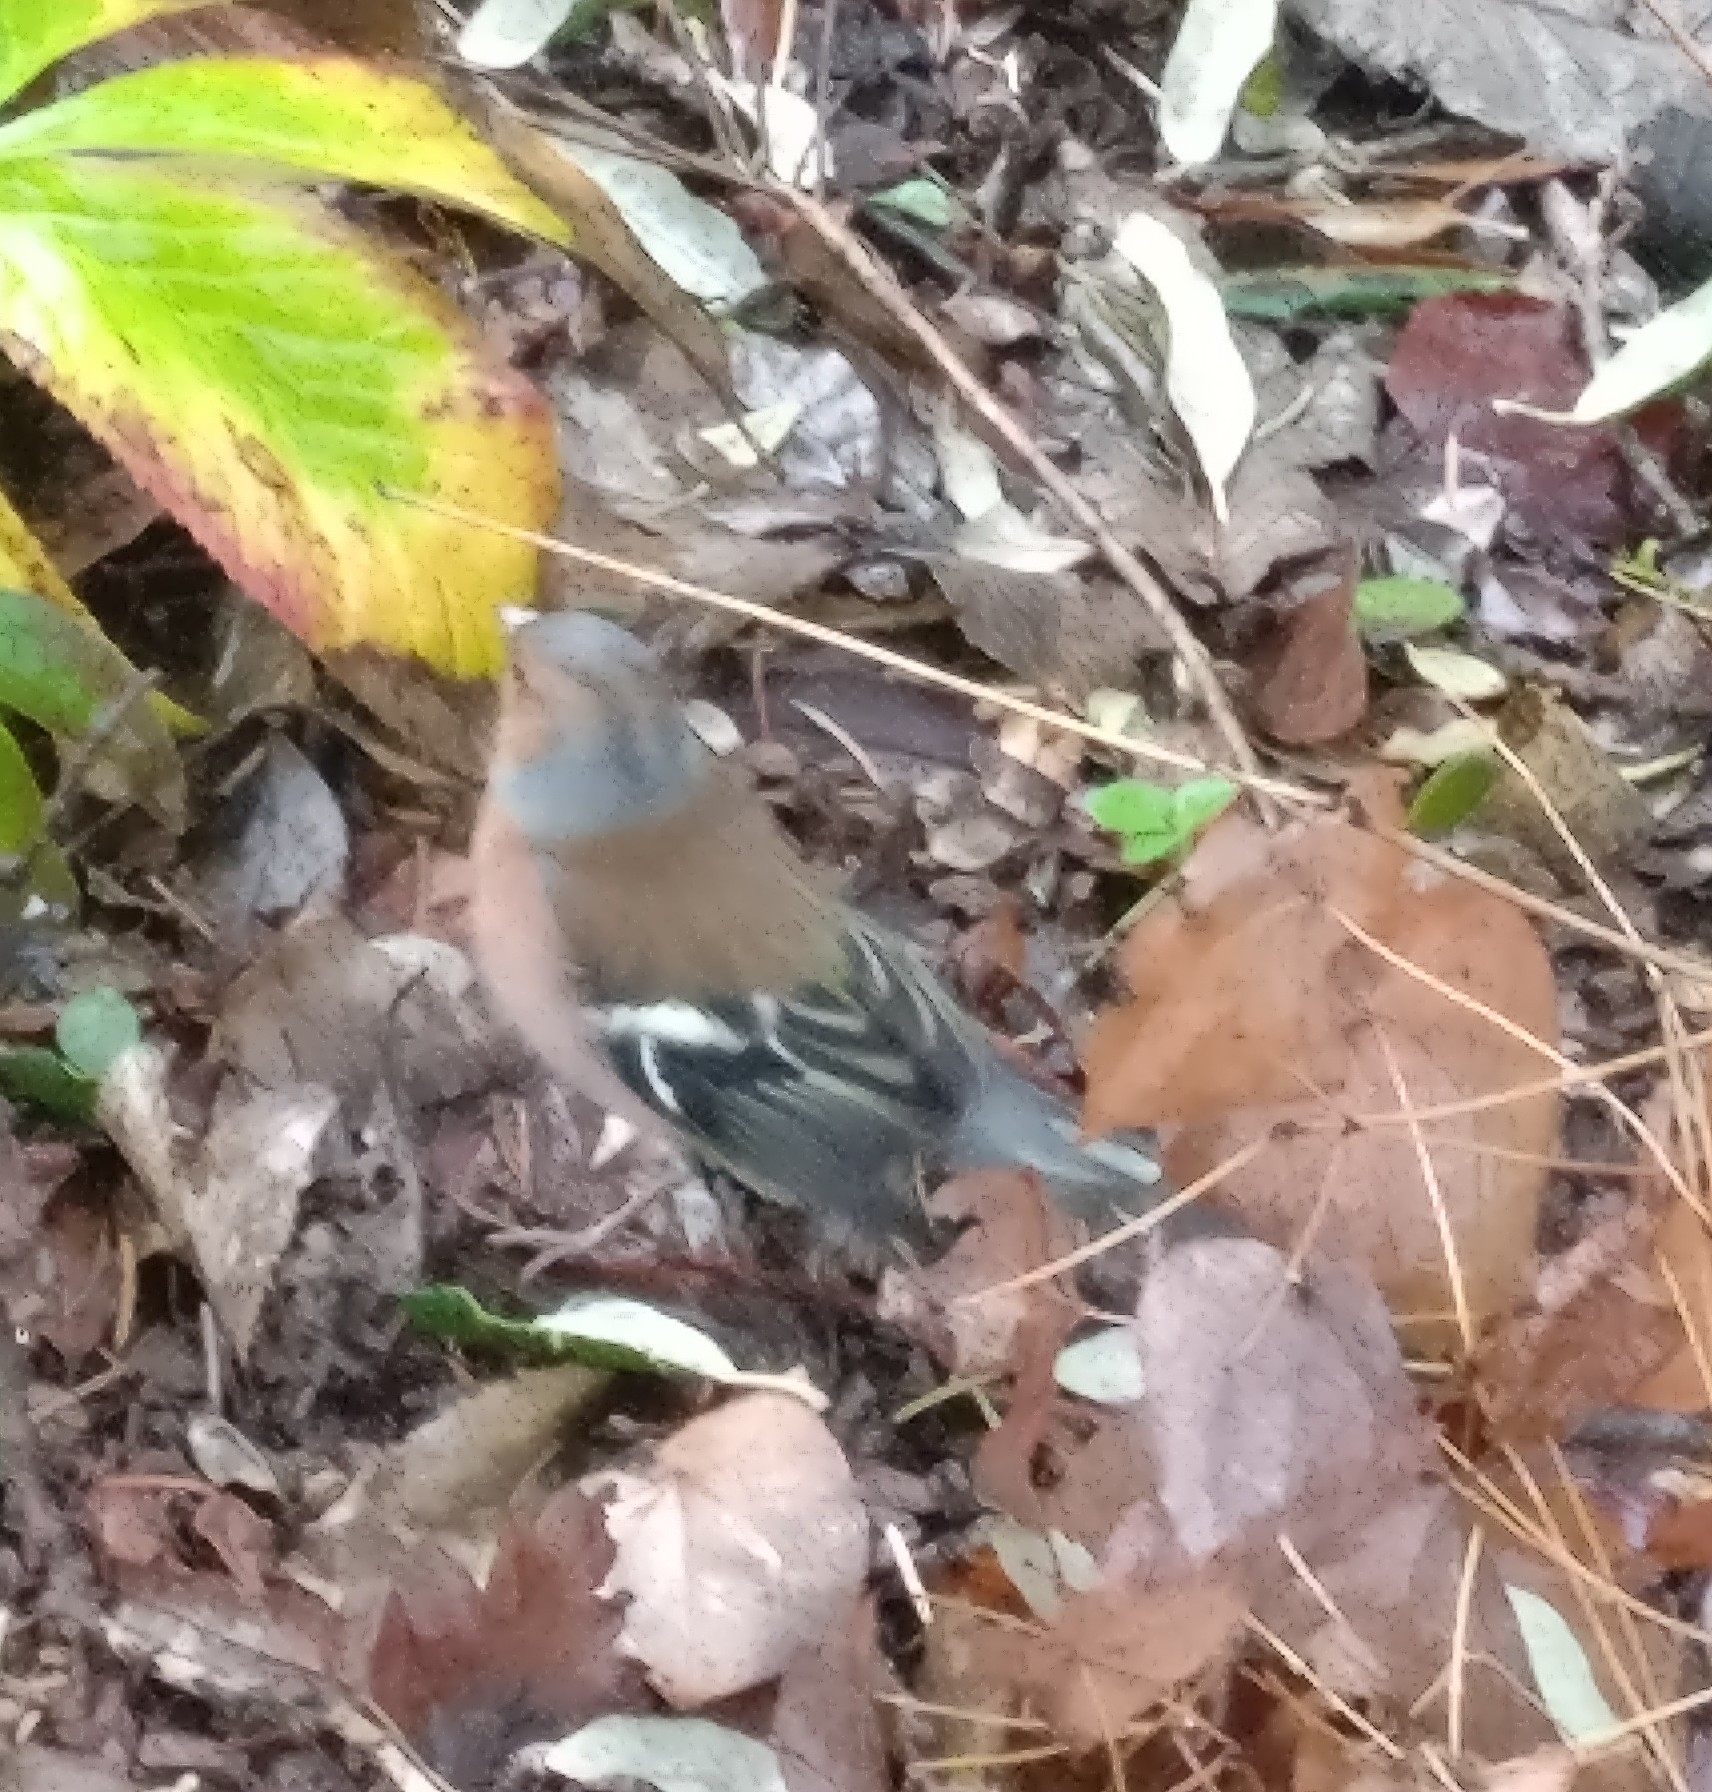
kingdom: Animalia
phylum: Chordata
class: Aves
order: Passeriformes
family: Fringillidae
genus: Fringilla
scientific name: Fringilla coelebs
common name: Common chaffinch
